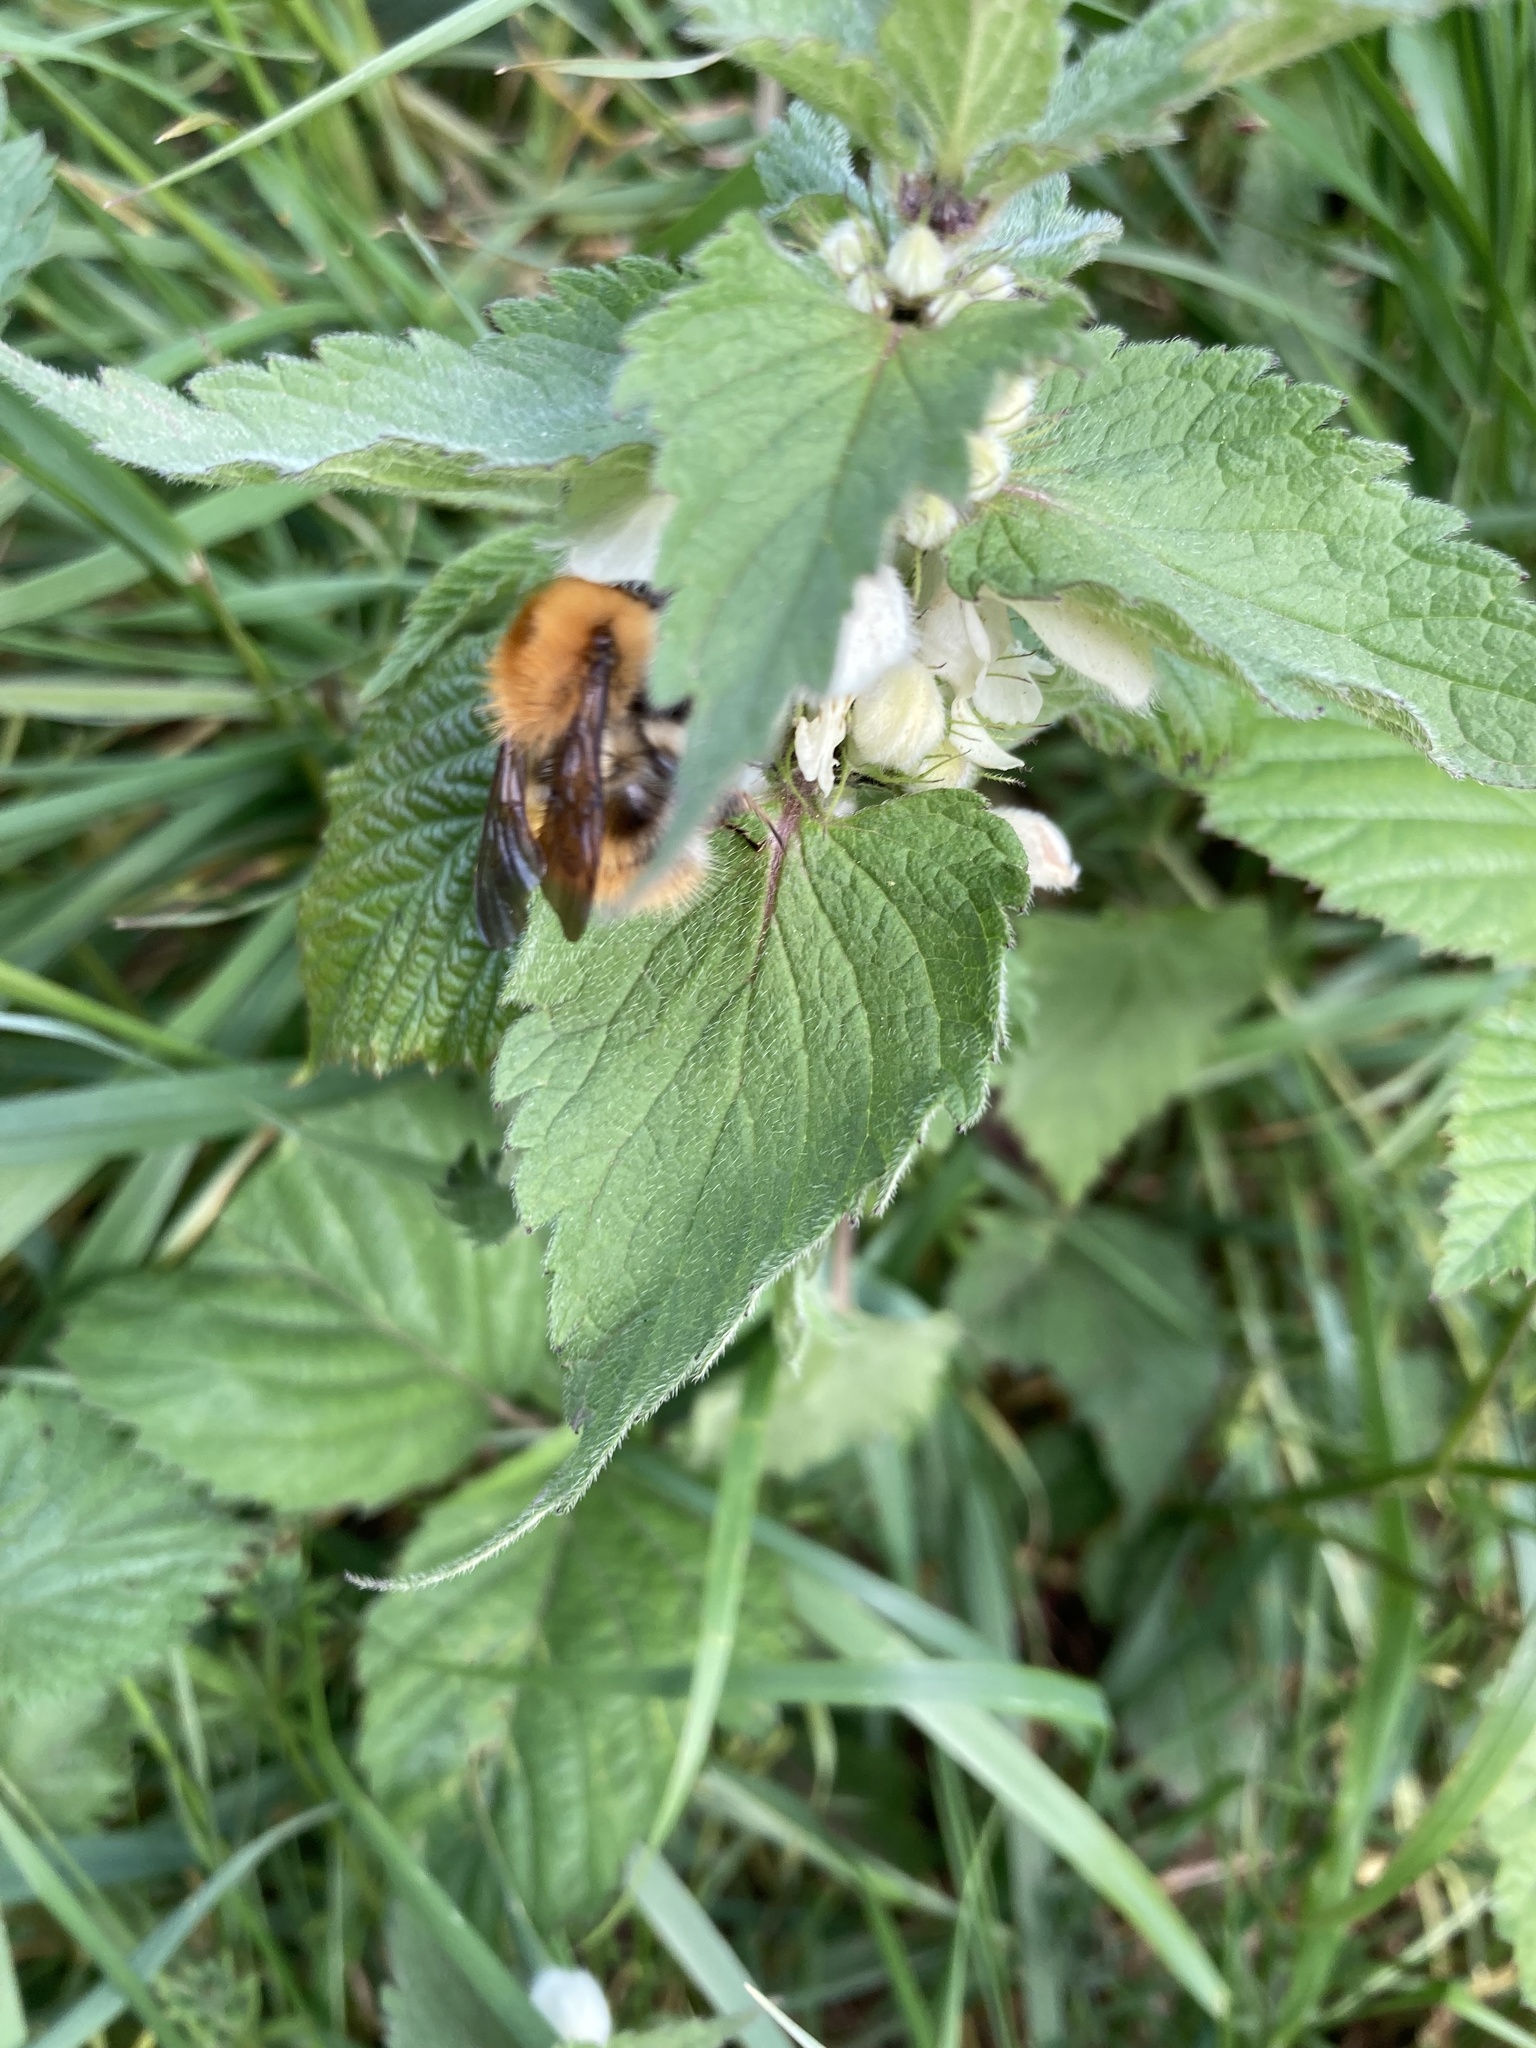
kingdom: Animalia
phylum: Arthropoda
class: Insecta
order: Hymenoptera
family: Apidae
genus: Bombus
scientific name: Bombus pascuorum
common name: Common carder bee
